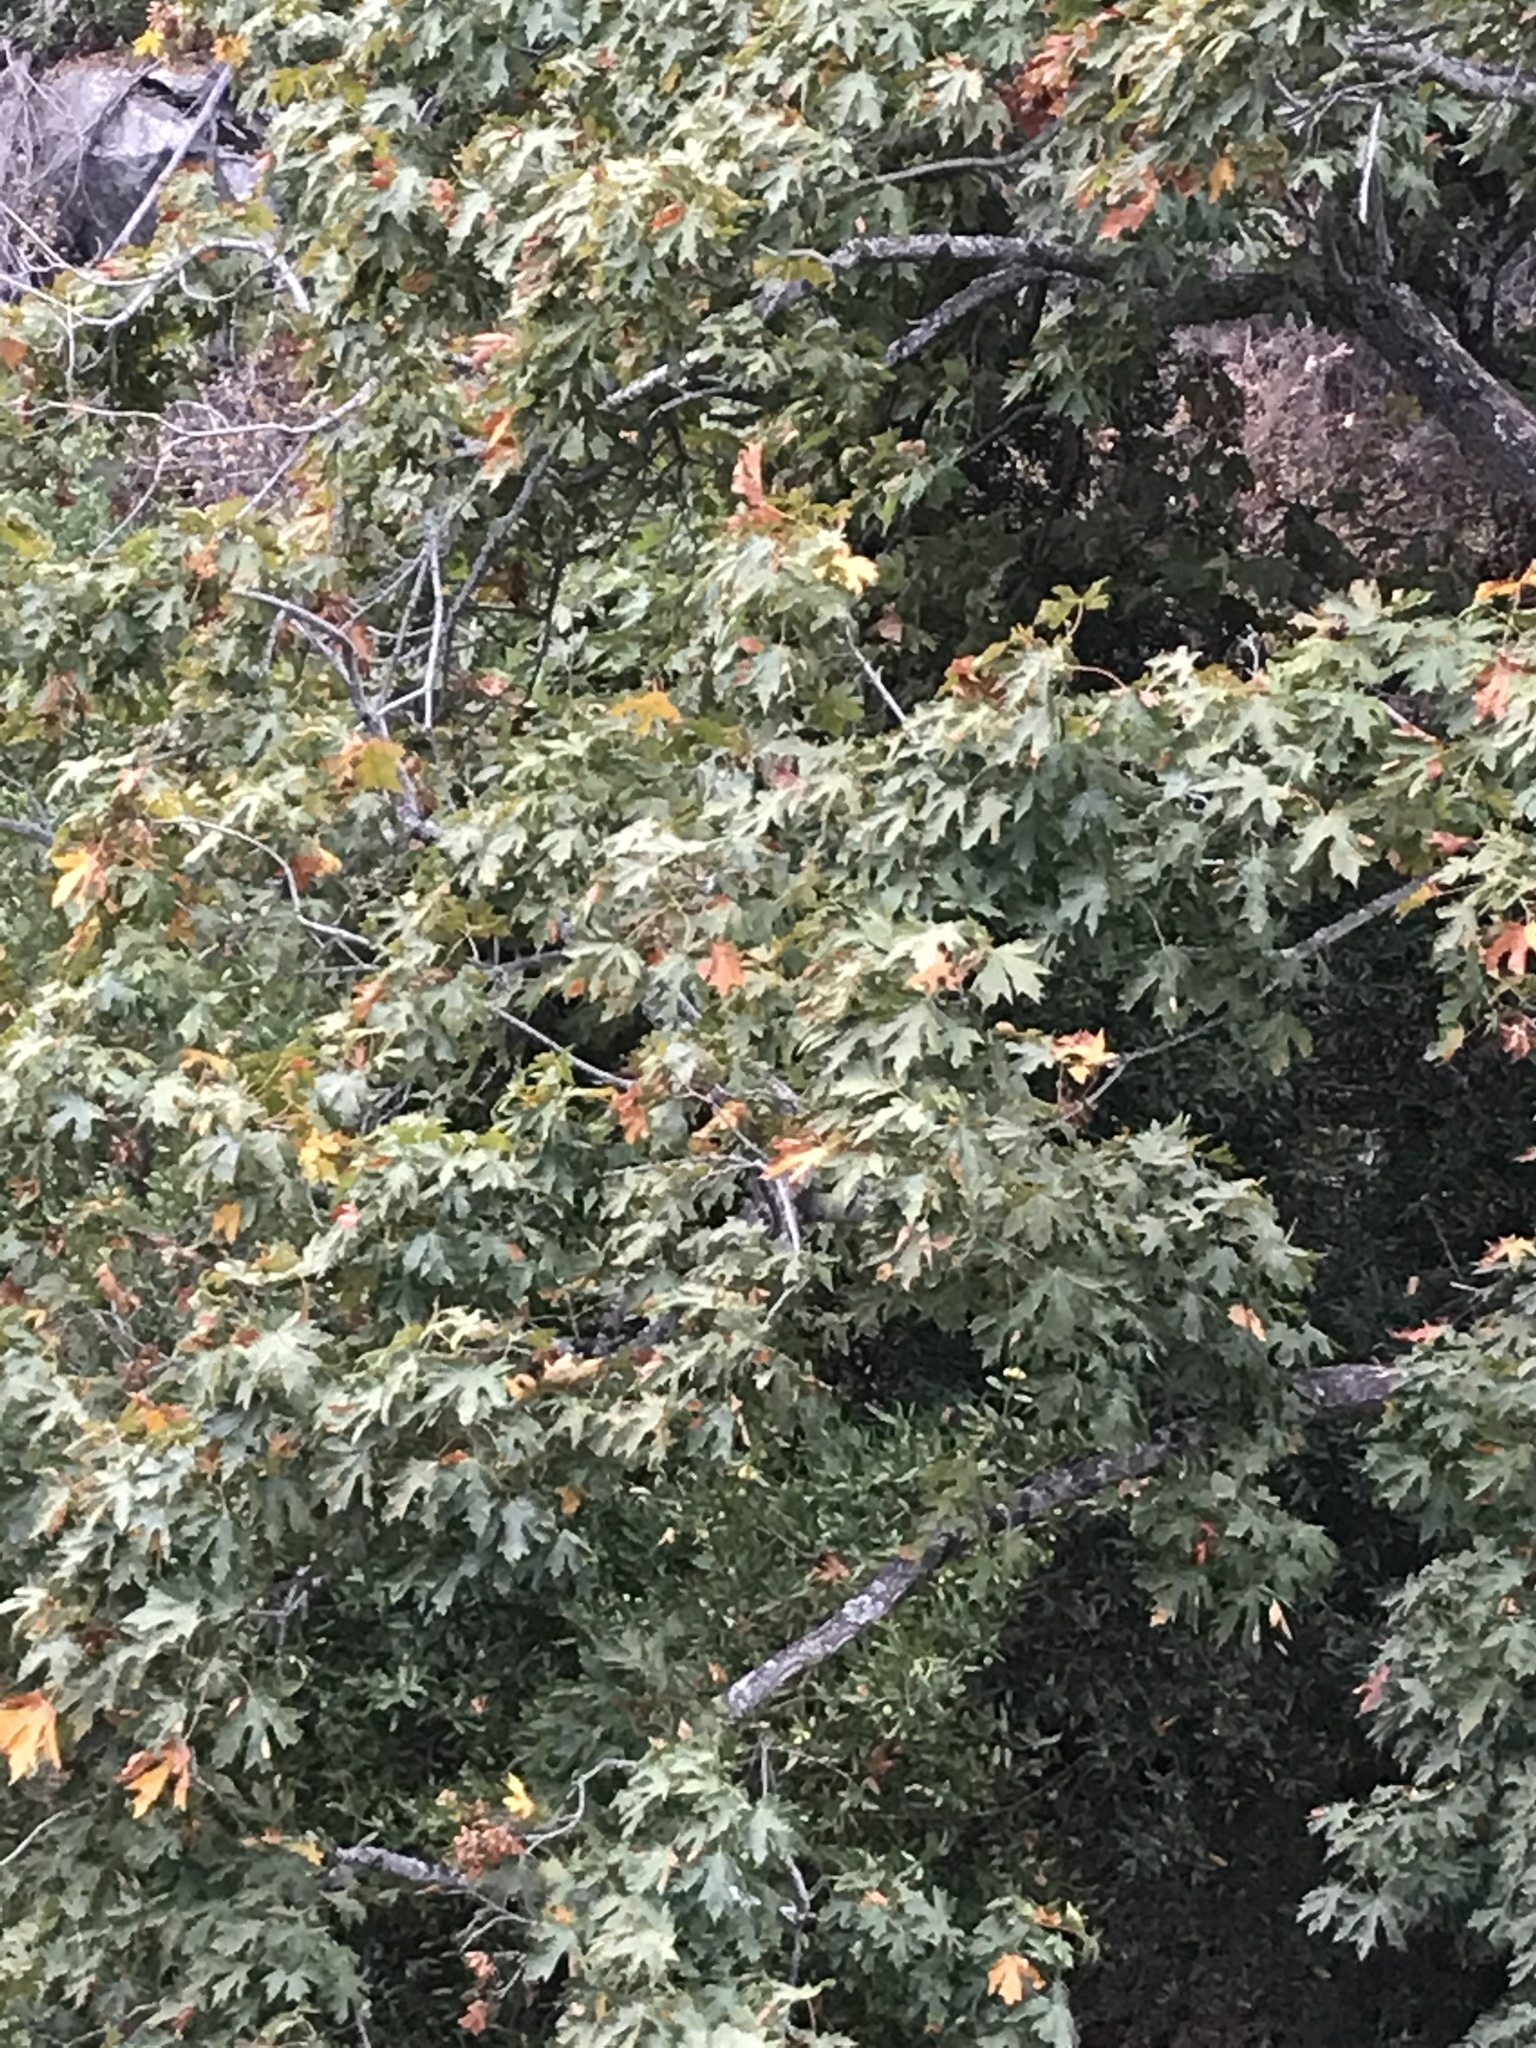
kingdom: Plantae
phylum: Tracheophyta
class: Magnoliopsida
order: Sapindales
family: Sapindaceae
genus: Acer
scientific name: Acer macrophyllum
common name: Oregon maple
